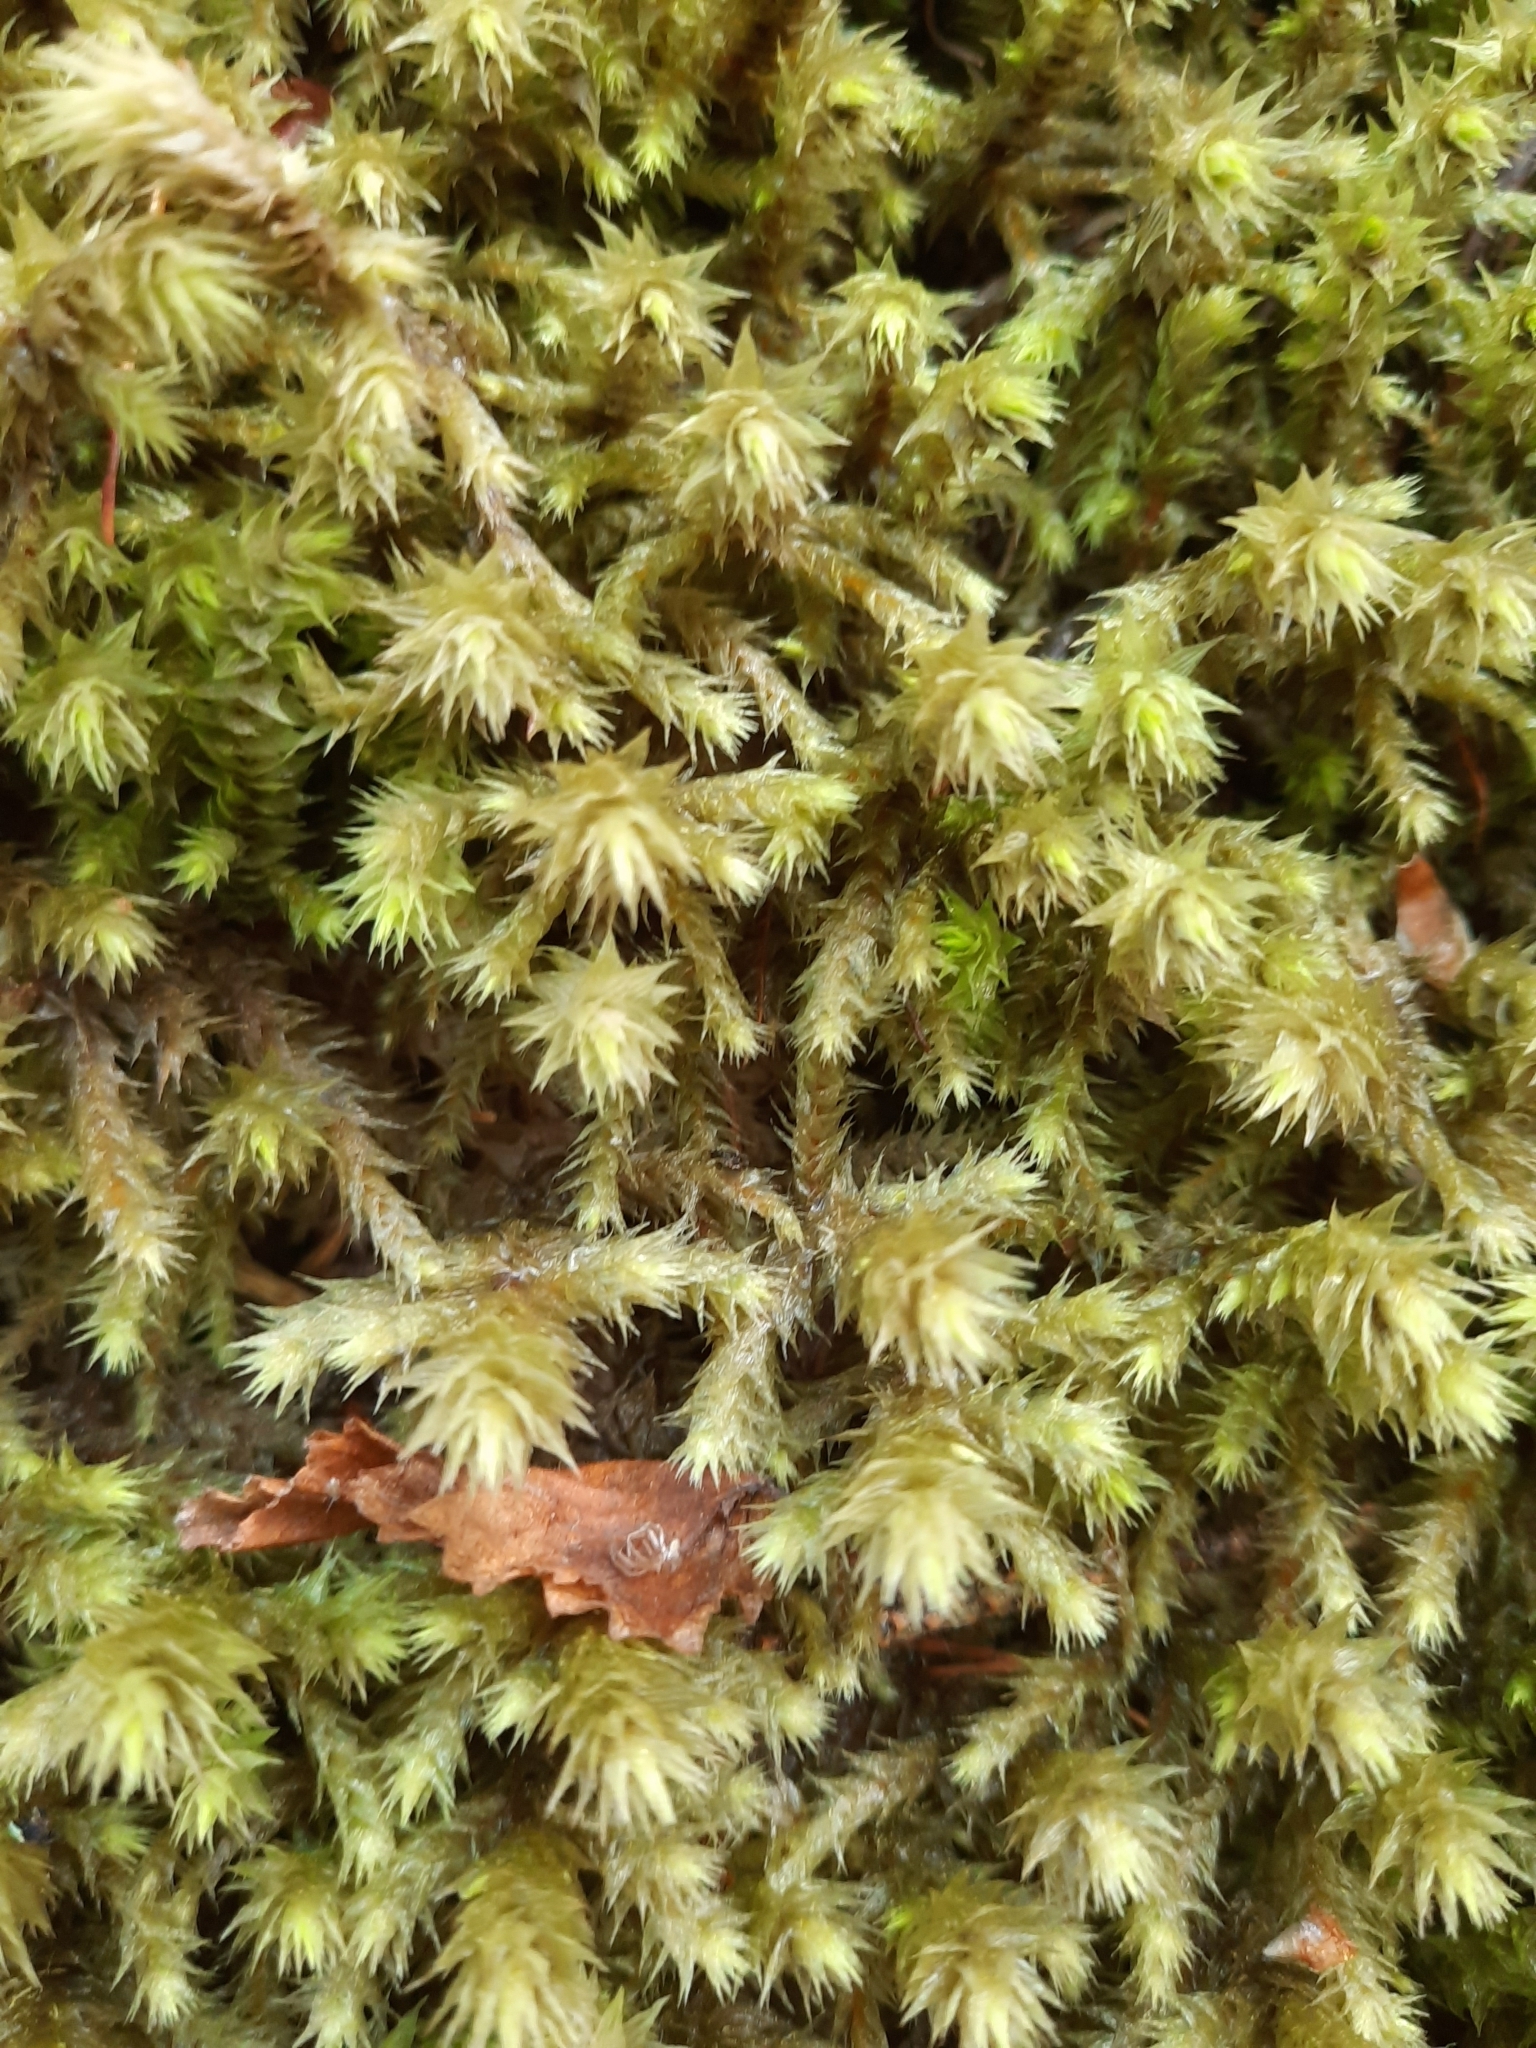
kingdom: Plantae
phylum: Bryophyta
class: Bryopsida
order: Hypnales
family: Hylocomiaceae
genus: Hylocomiadelphus
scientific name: Hylocomiadelphus triquetrus
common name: Rough goose neck moss
